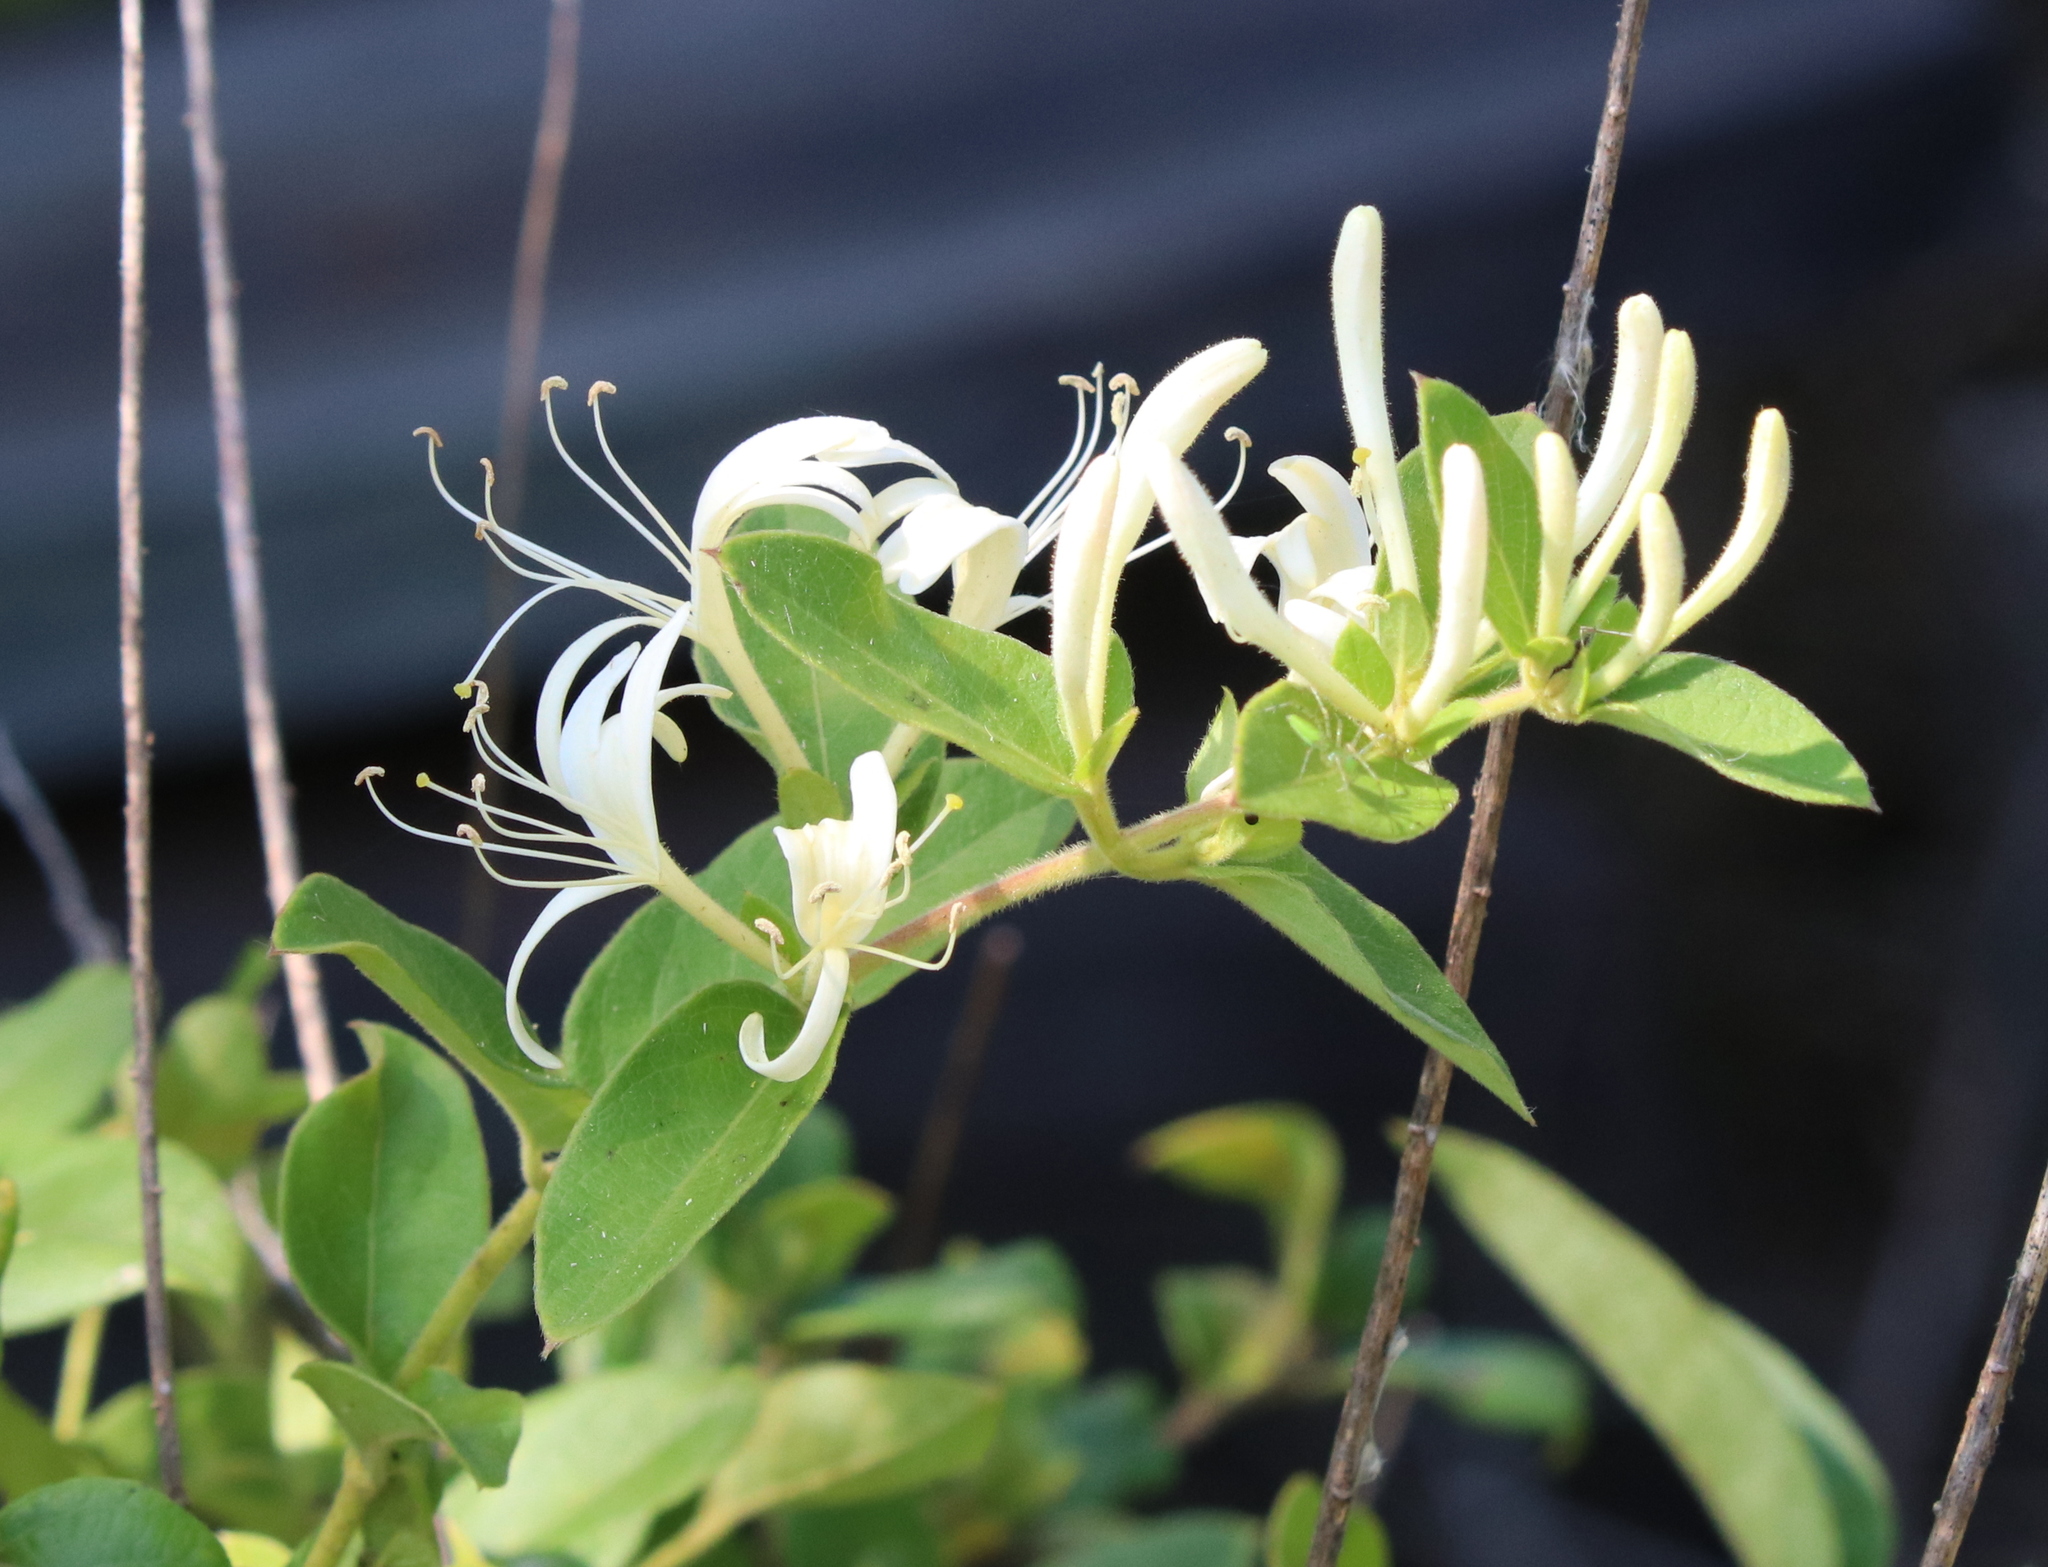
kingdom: Plantae
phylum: Tracheophyta
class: Magnoliopsida
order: Dipsacales
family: Caprifoliaceae
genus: Lonicera
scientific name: Lonicera japonica
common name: Japanese honeysuckle
